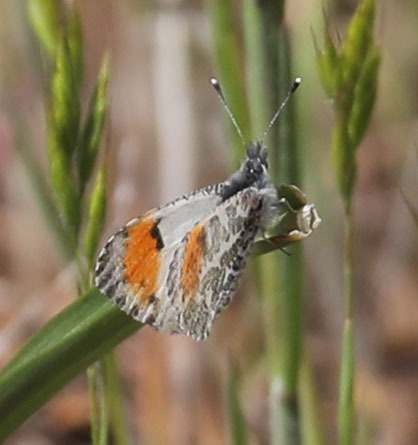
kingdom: Animalia
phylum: Arthropoda
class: Insecta
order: Lepidoptera
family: Pieridae
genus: Anthocharis
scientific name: Anthocharis sara
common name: Sara's orangetip
